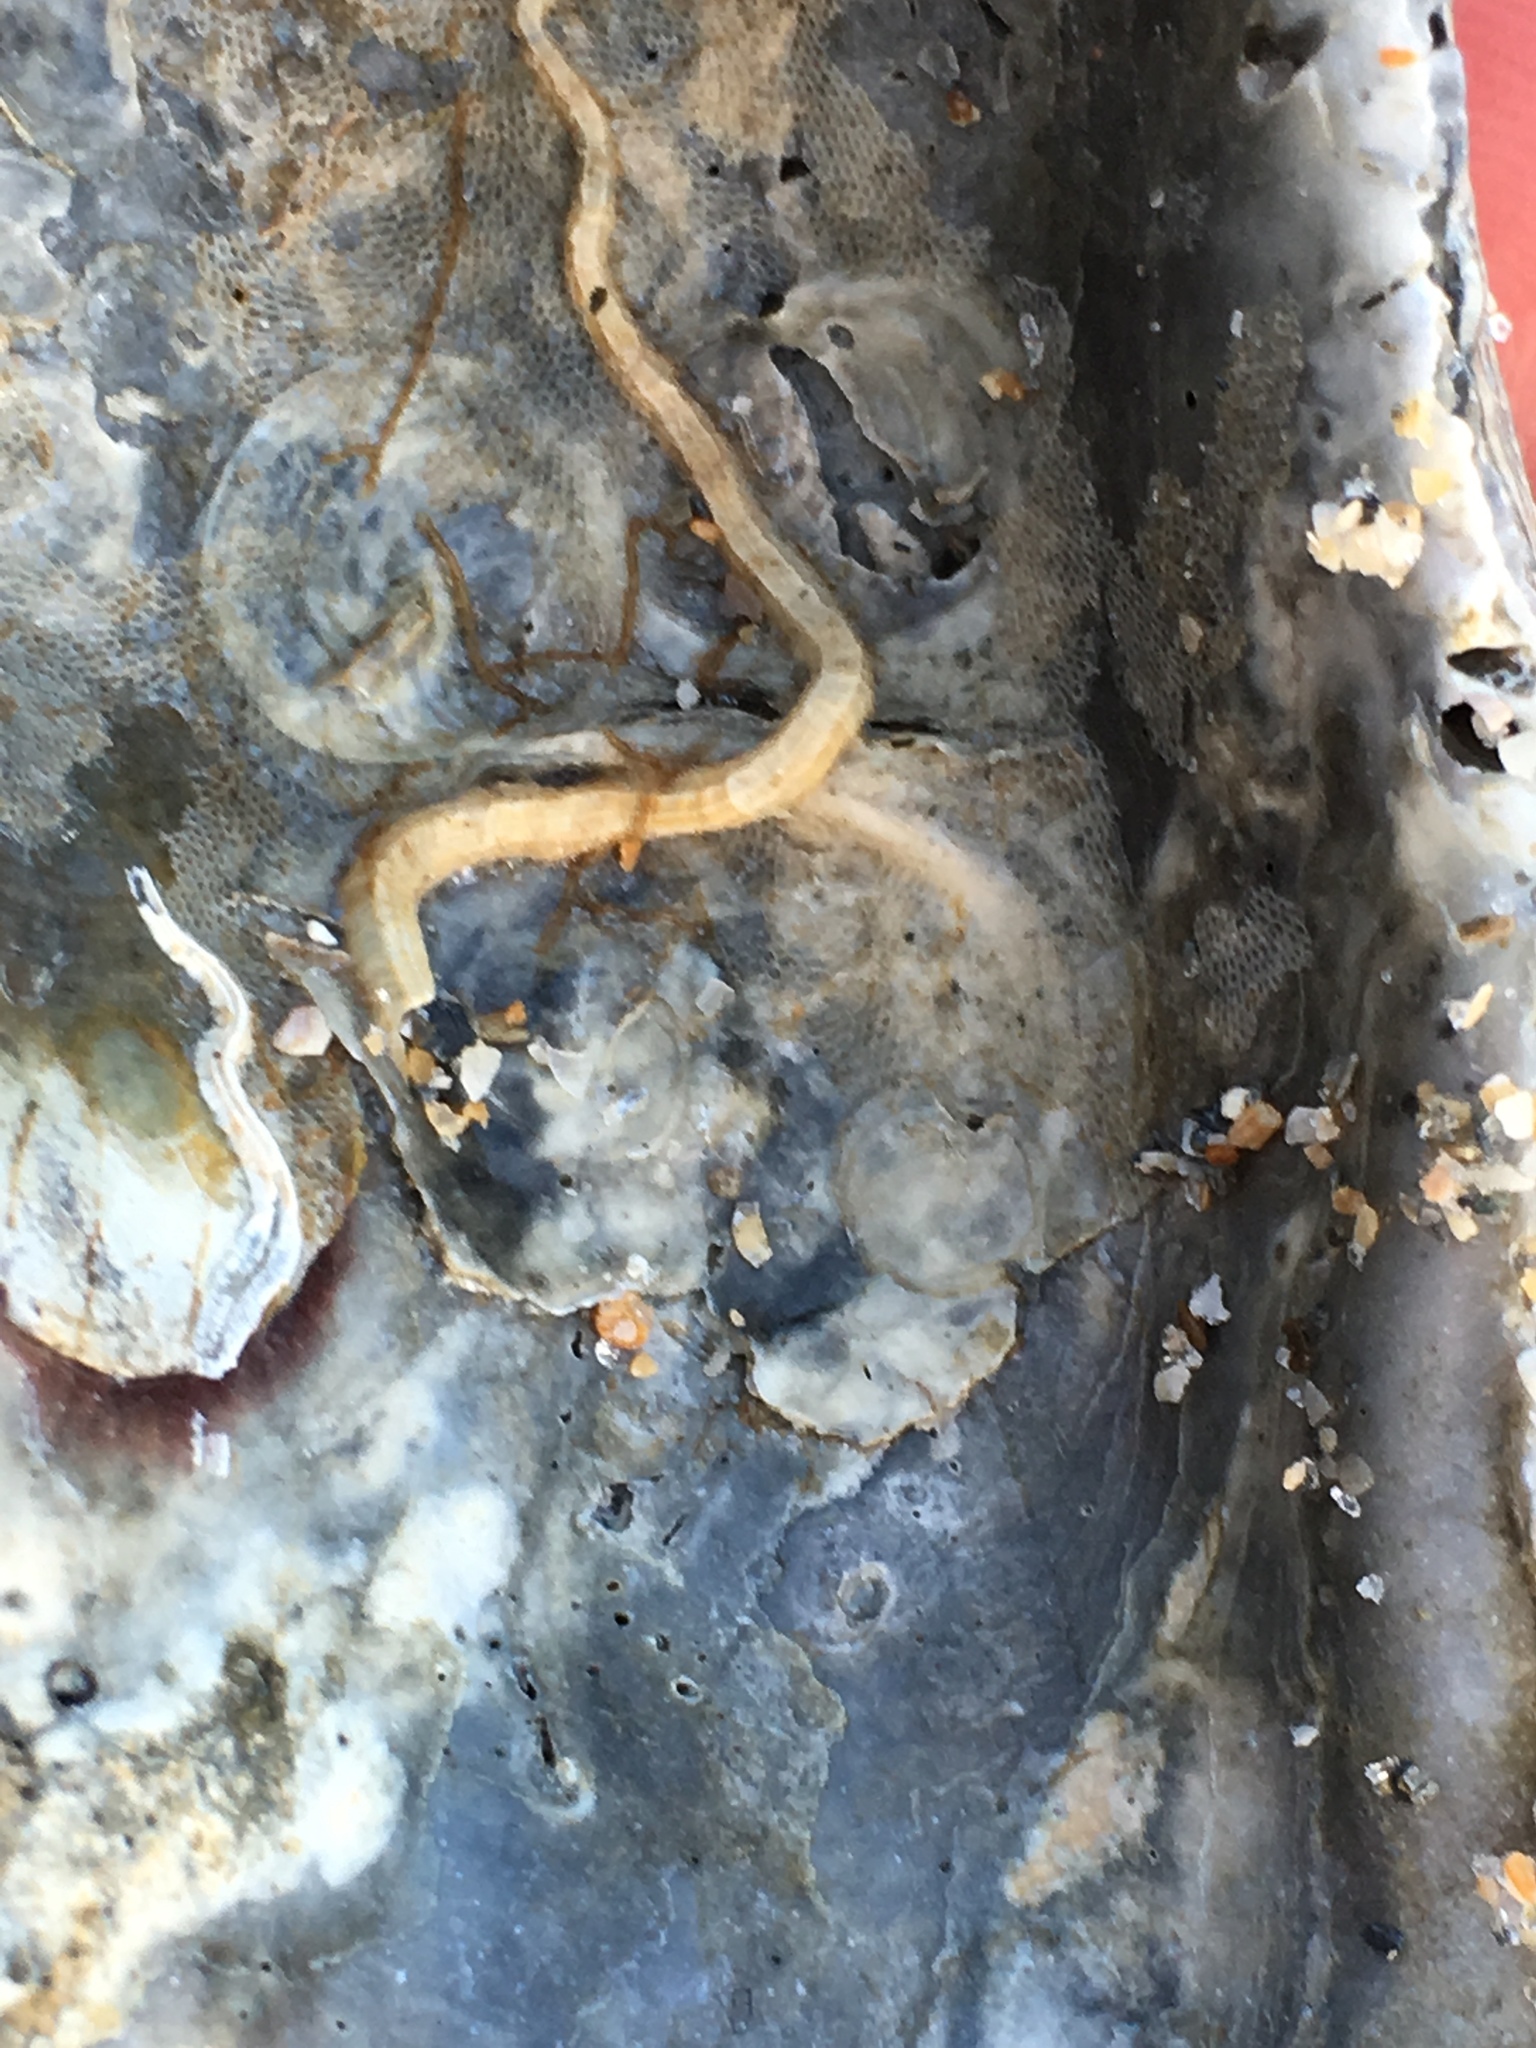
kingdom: Animalia
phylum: Mollusca
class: Bivalvia
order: Ostreida
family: Ostreidae
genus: Crassostrea
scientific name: Crassostrea virginica
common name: American oyster
